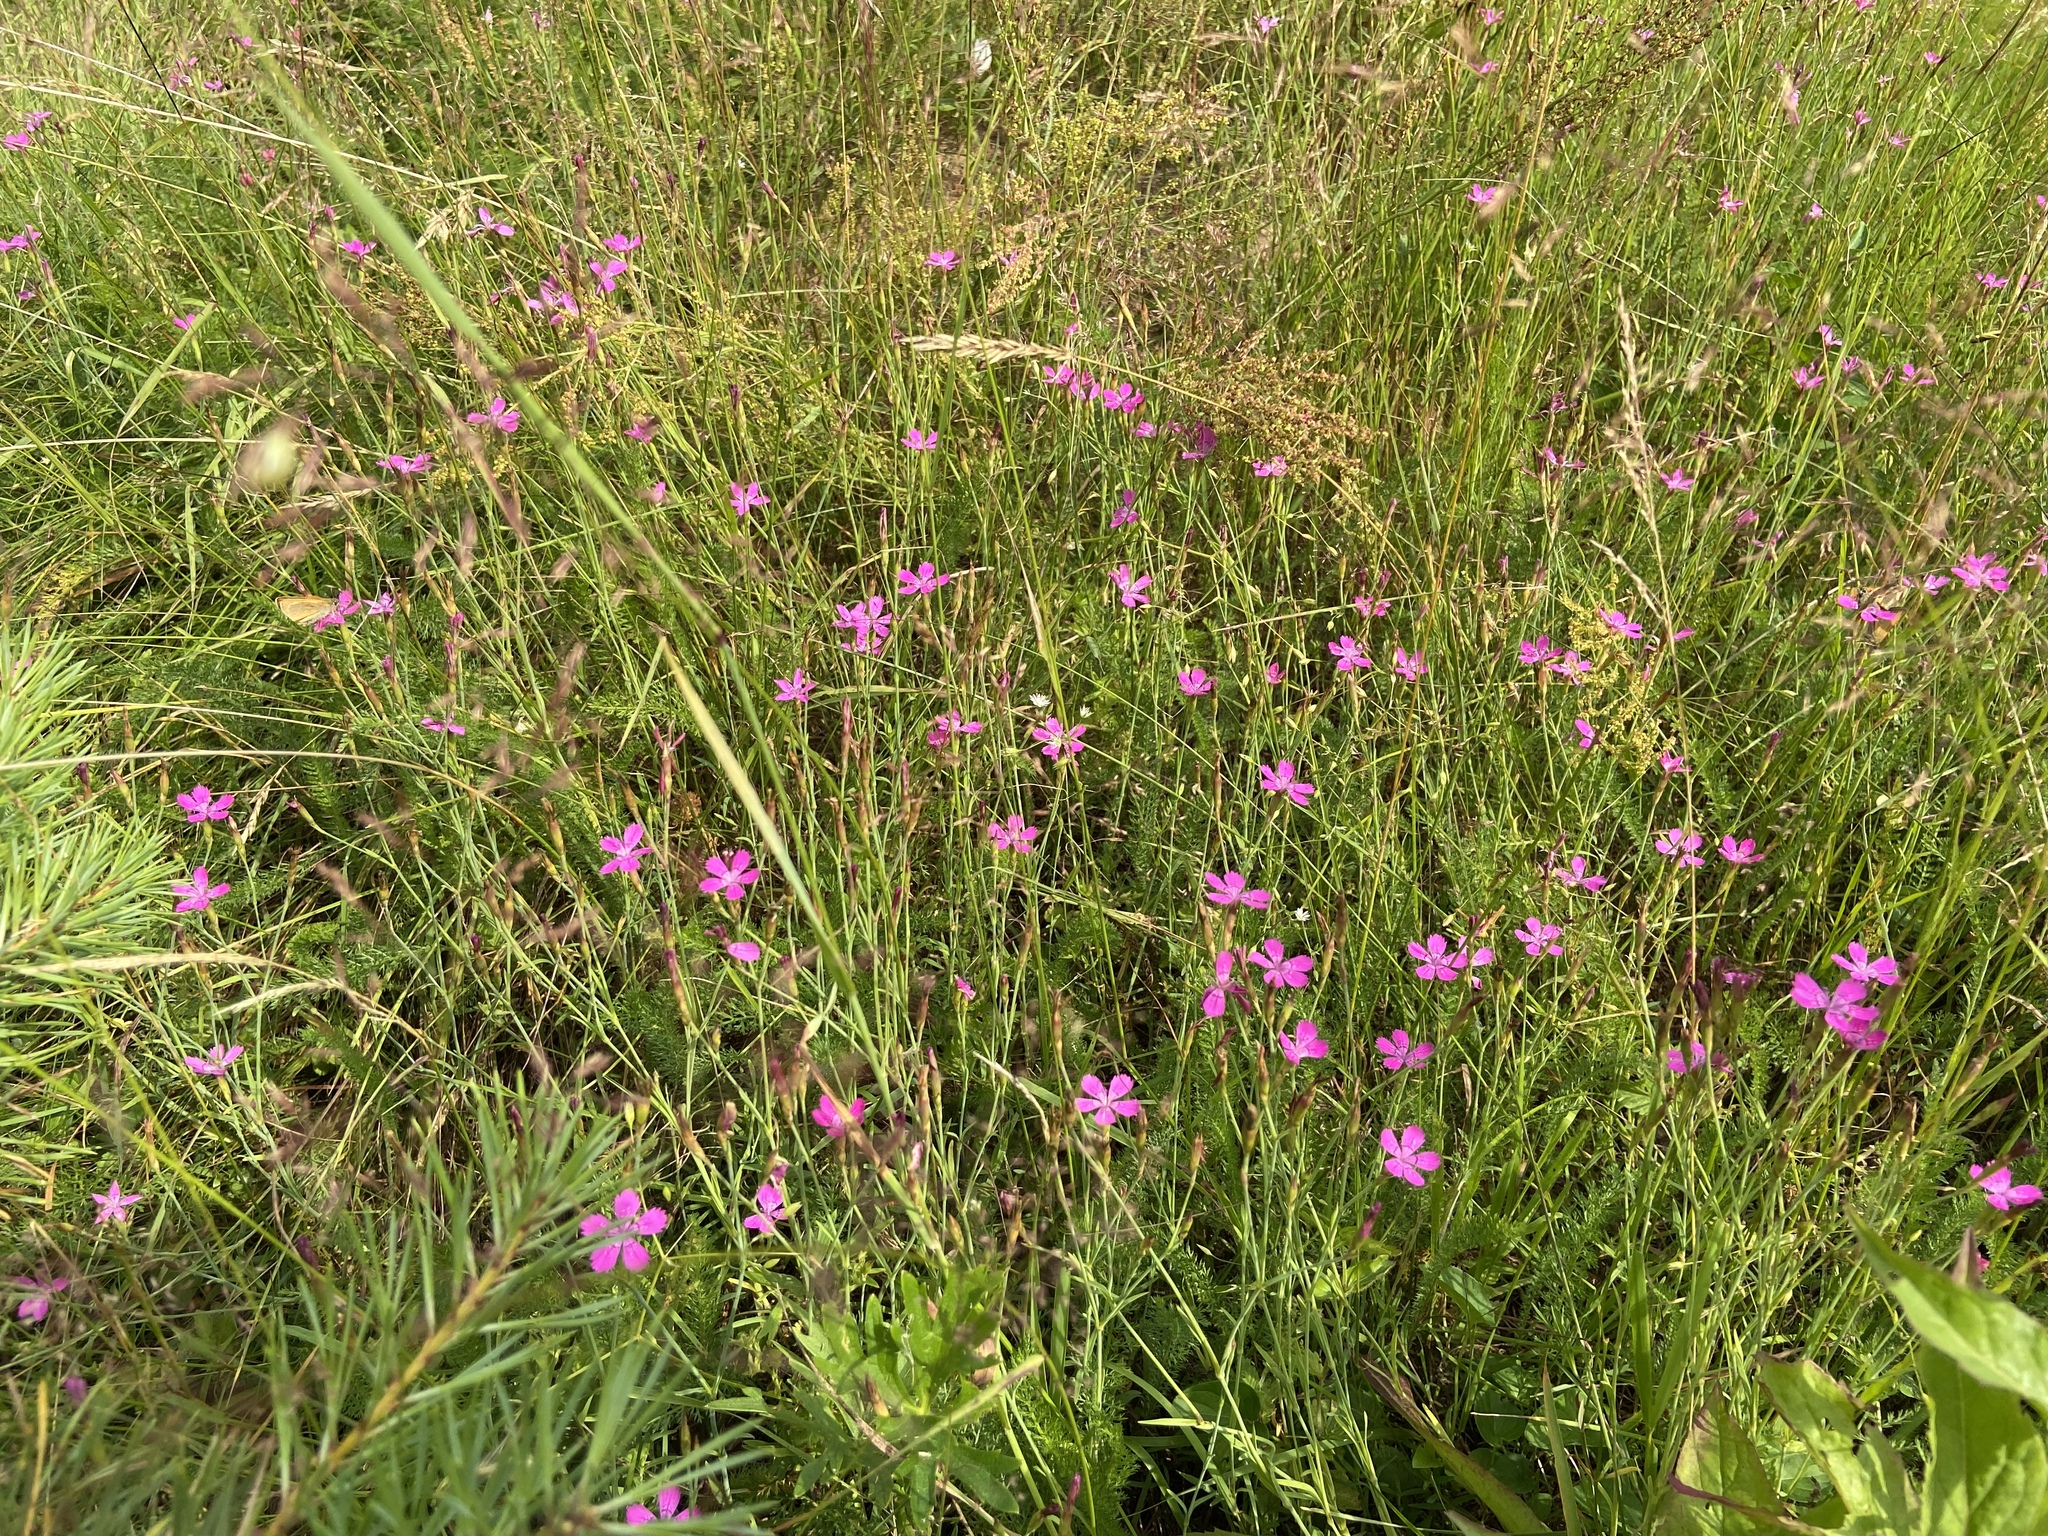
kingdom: Plantae
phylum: Tracheophyta
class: Magnoliopsida
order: Caryophyllales
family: Caryophyllaceae
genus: Dianthus
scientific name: Dianthus deltoides
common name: Maiden pink
